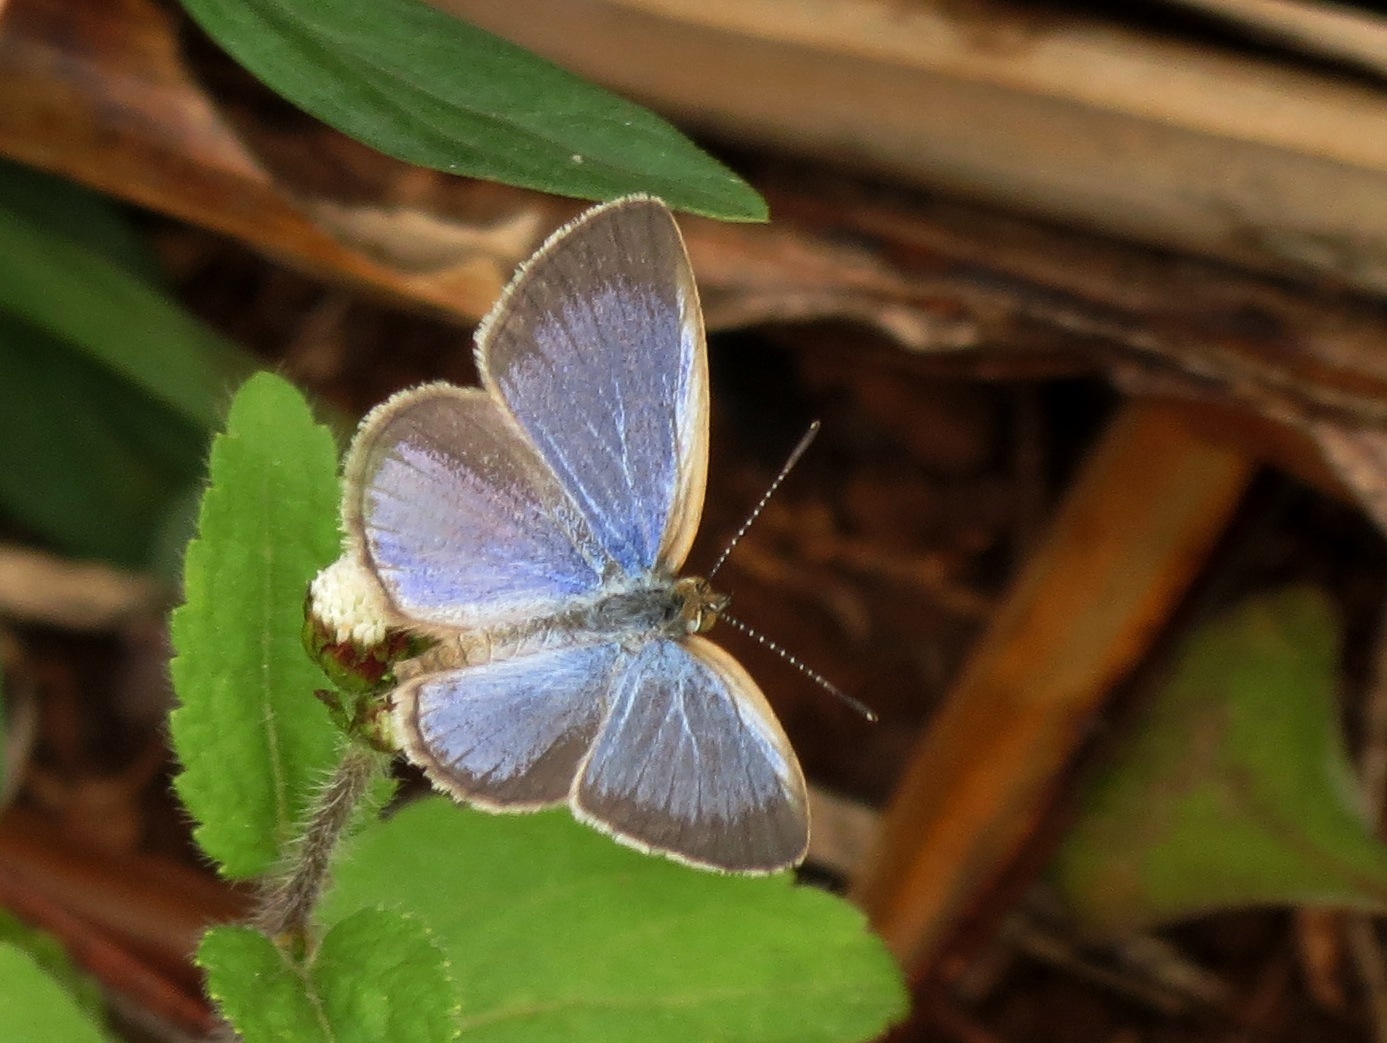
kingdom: Animalia
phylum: Arthropoda
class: Insecta
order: Lepidoptera
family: Lycaenidae
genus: Zizina
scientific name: Zizina otis
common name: Lesser grass blue
